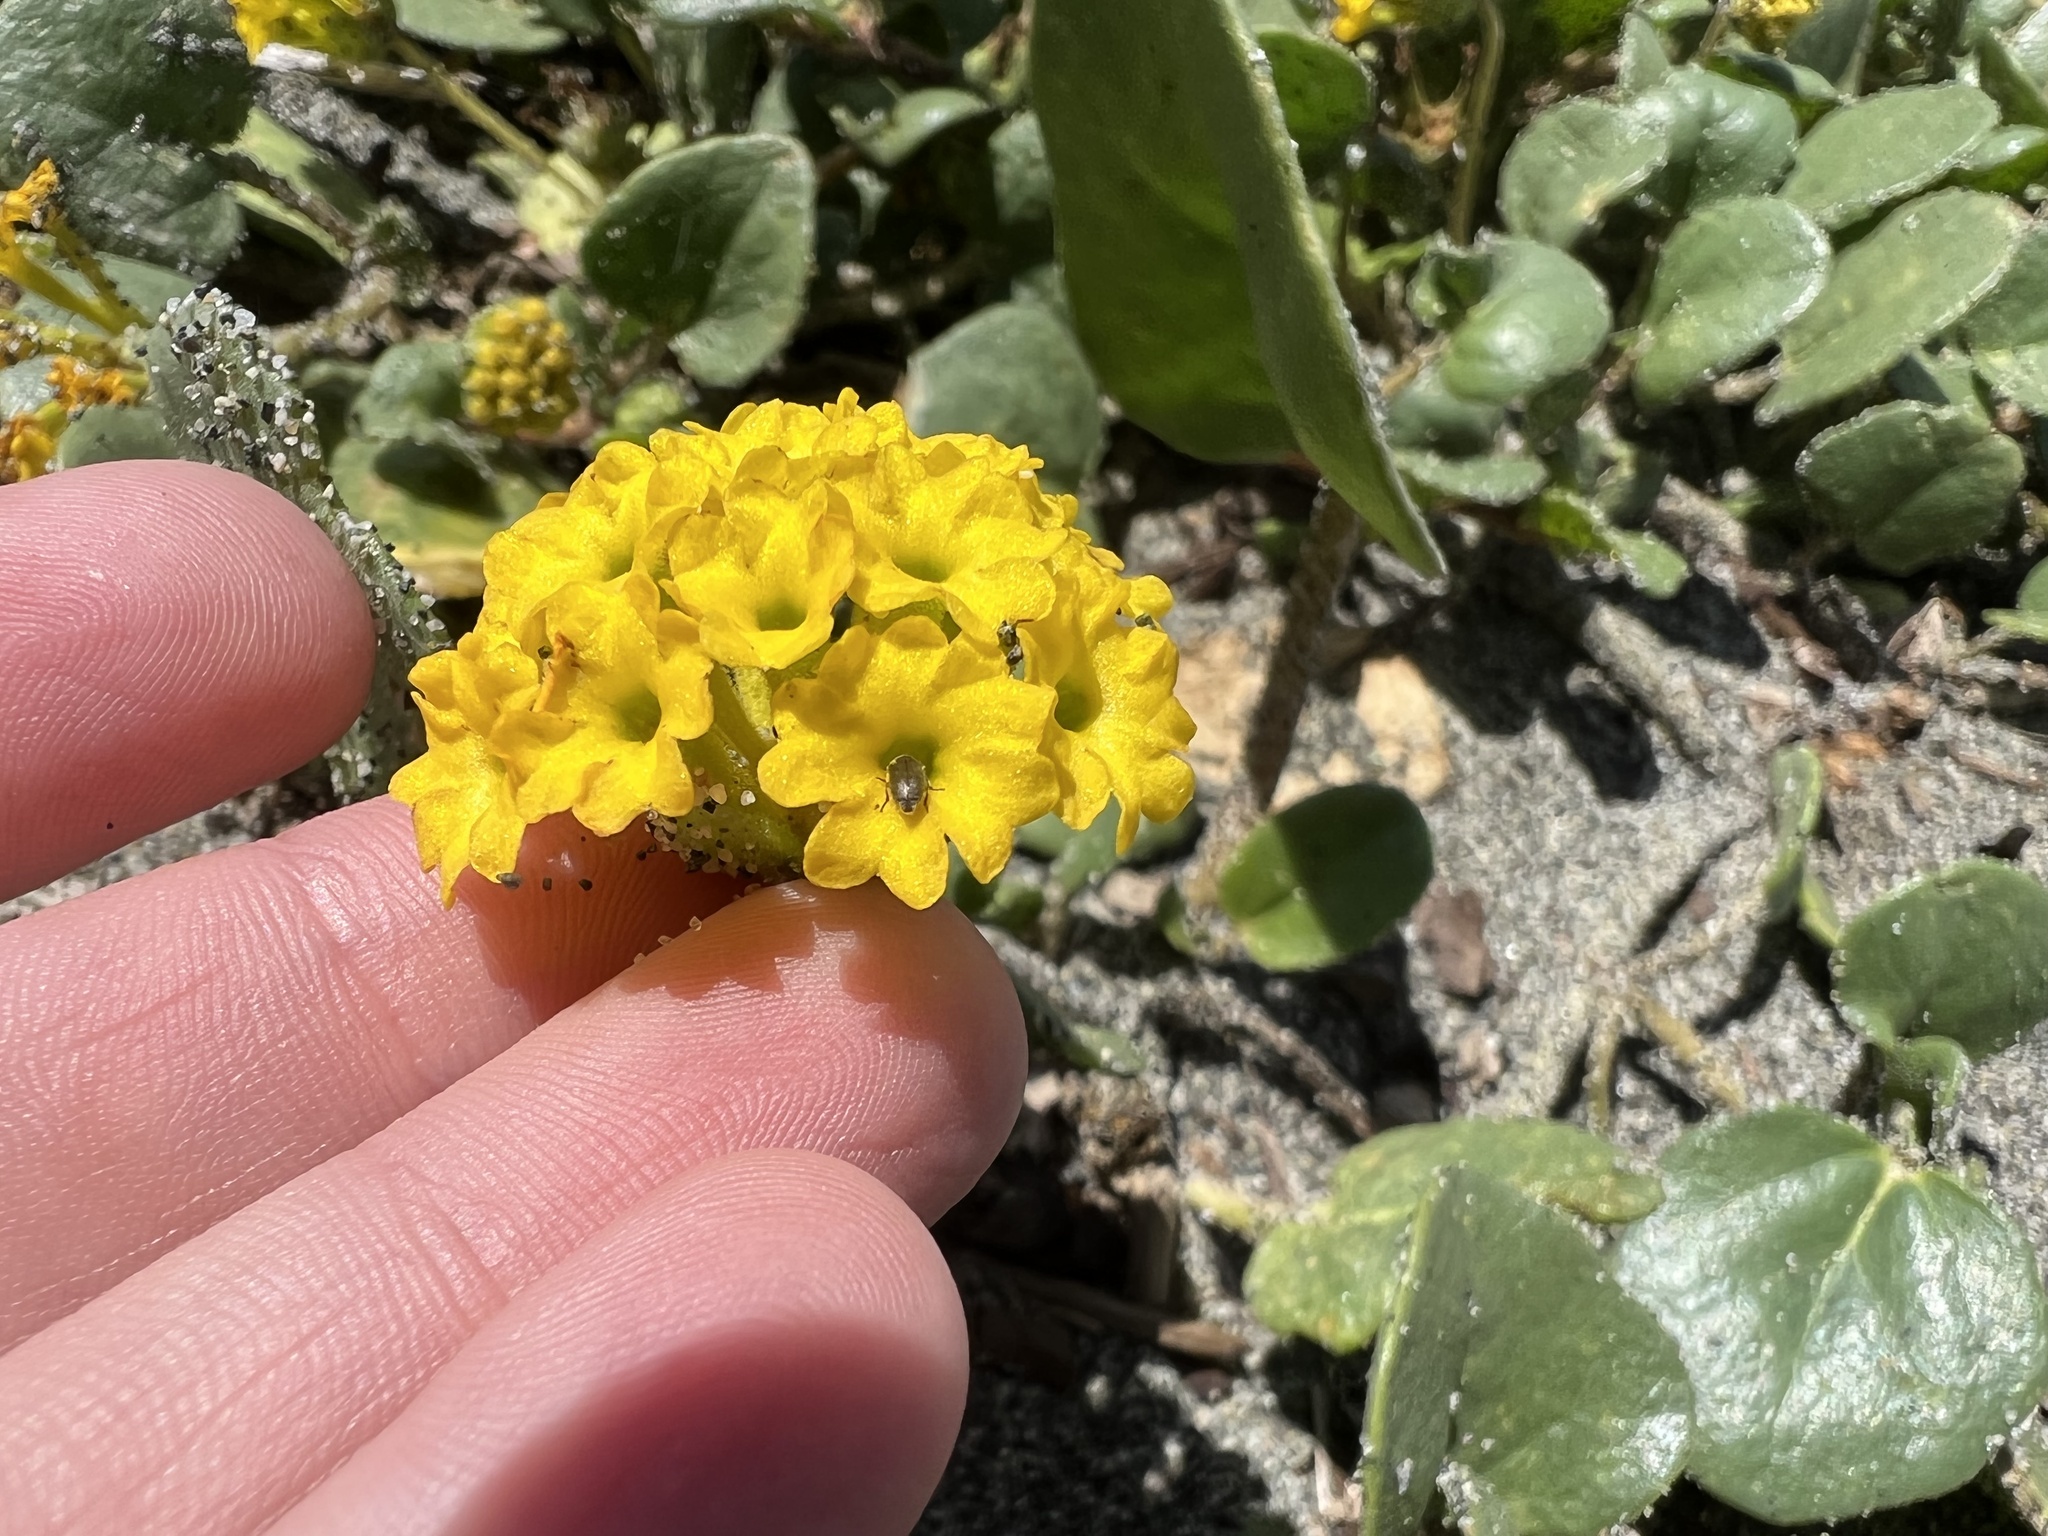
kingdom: Plantae
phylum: Tracheophyta
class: Magnoliopsida
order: Caryophyllales
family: Nyctaginaceae
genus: Abronia
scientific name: Abronia latifolia
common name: Yellow sand-verbena
